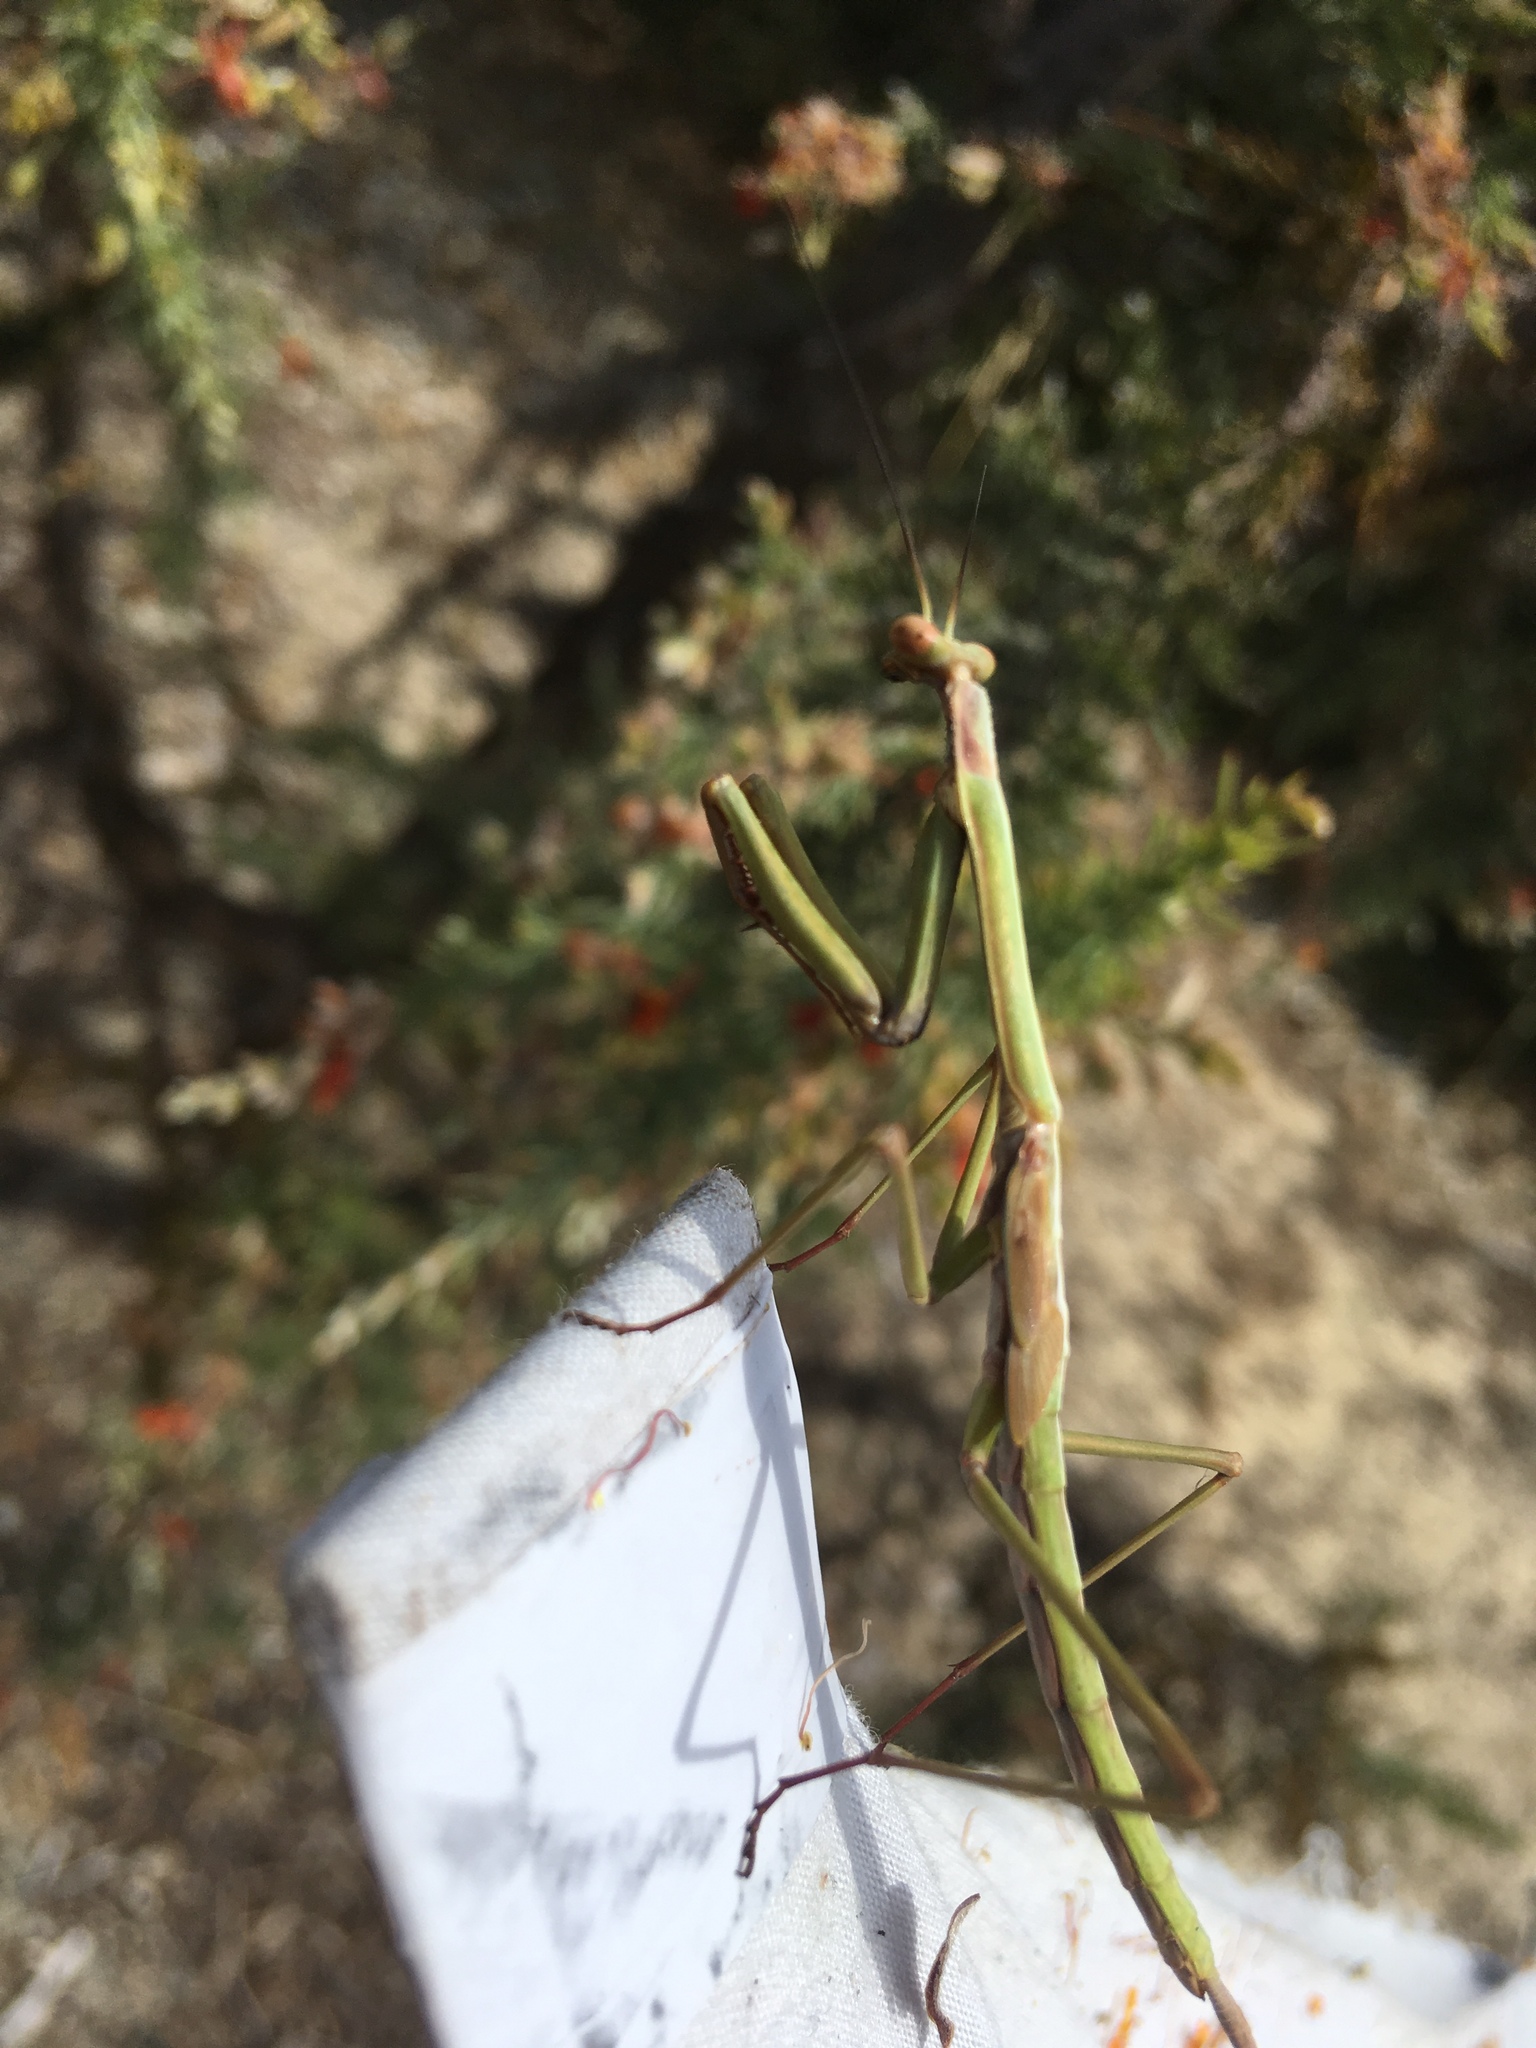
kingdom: Animalia
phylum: Arthropoda
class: Insecta
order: Mantodea
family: Mantidae
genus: Archimantis
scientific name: Archimantis sobrina
